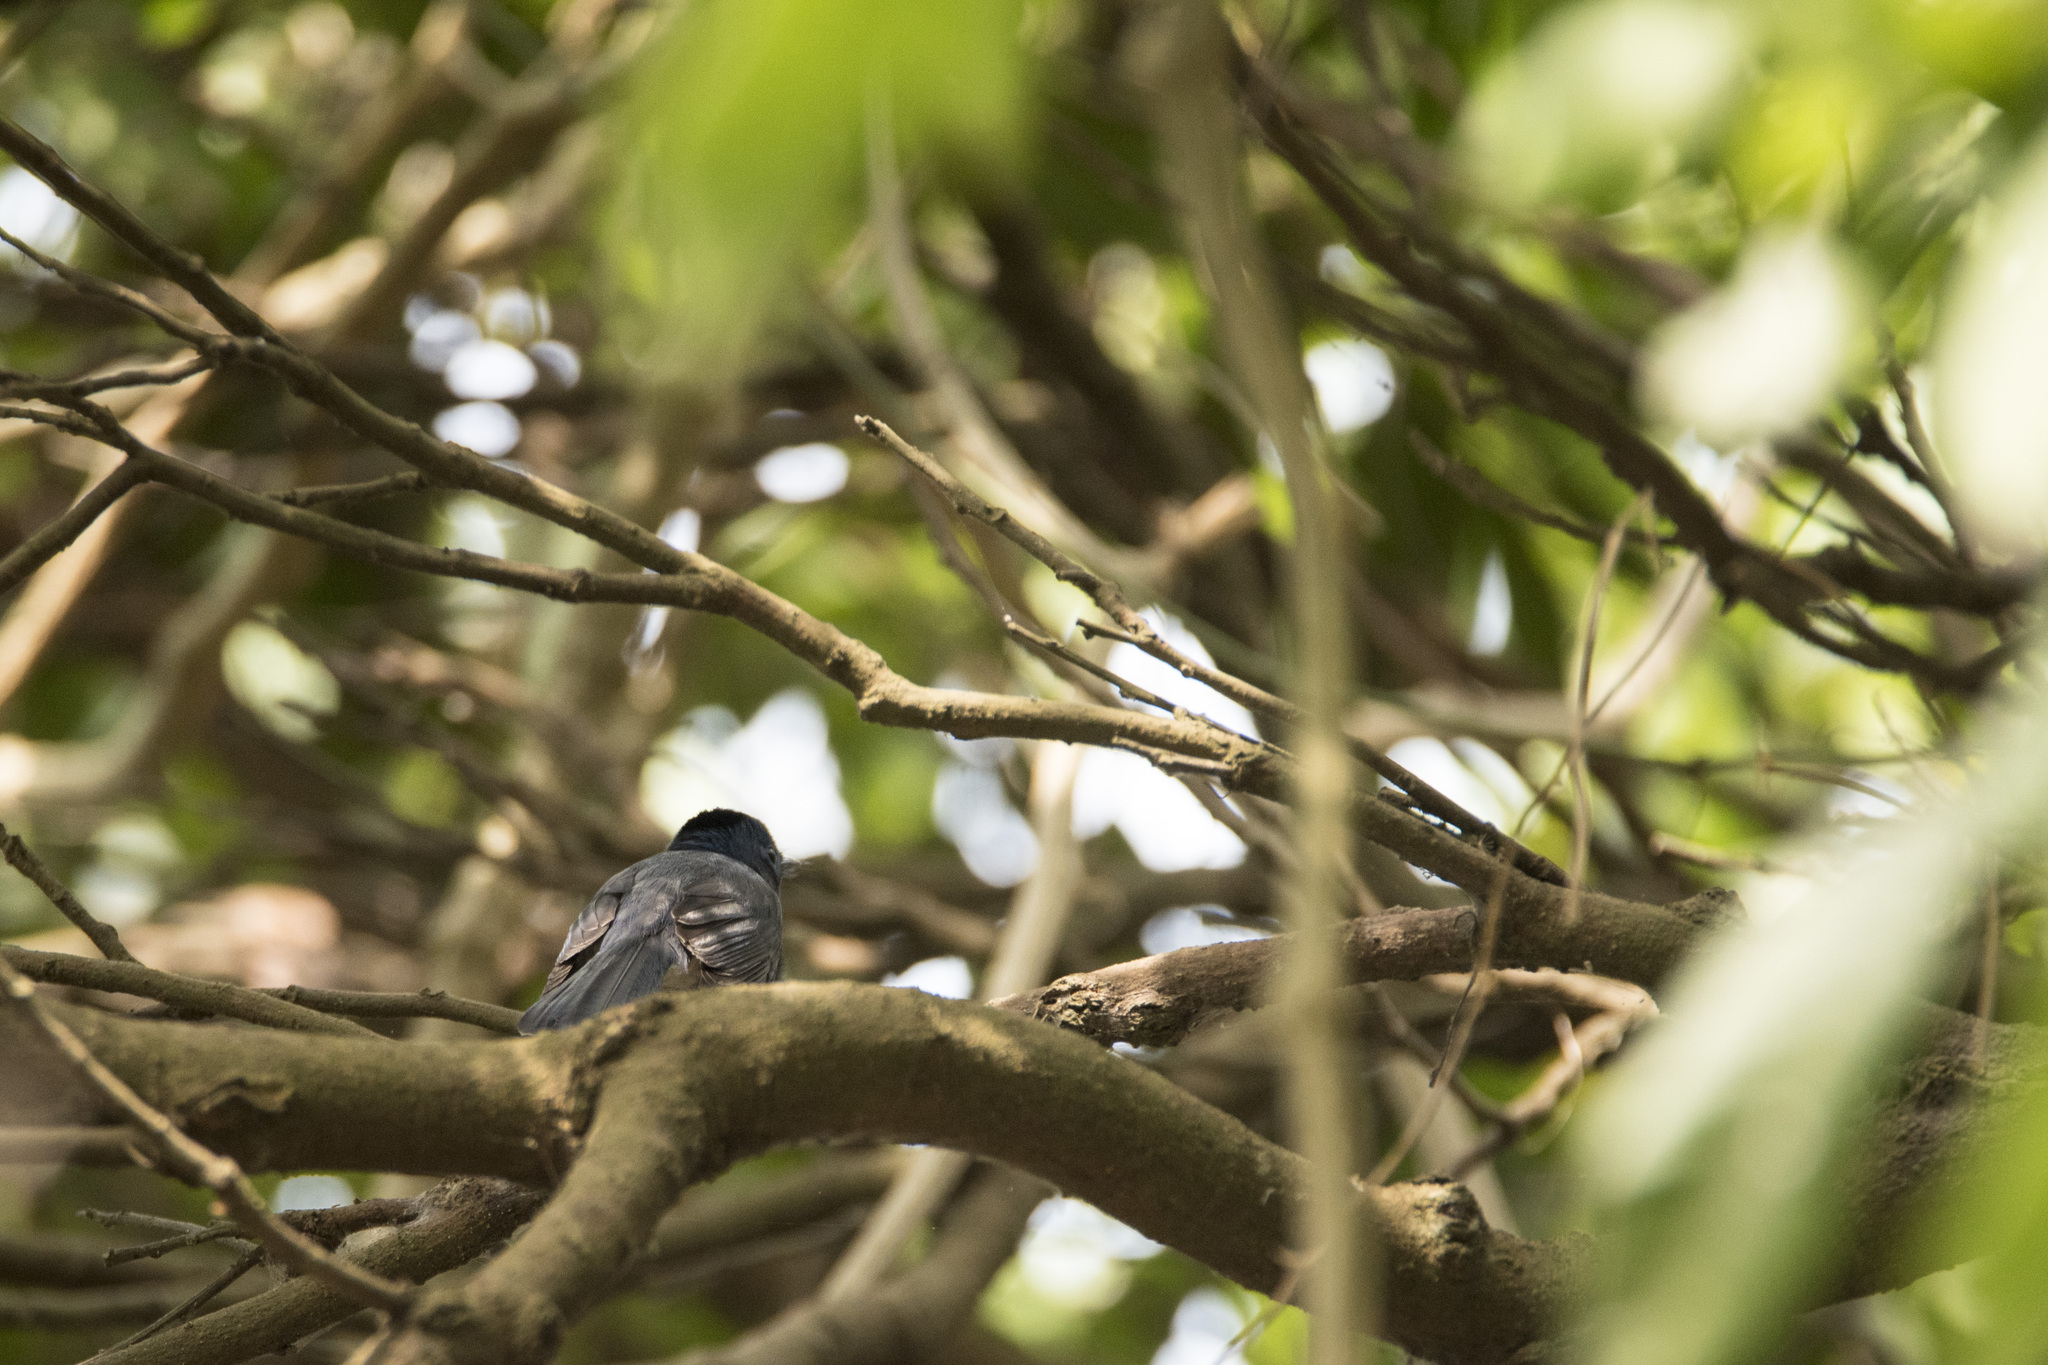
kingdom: Animalia
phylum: Chordata
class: Aves
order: Passeriformes
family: Monarchidae
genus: Hypothymis
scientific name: Hypothymis azurea
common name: Black-naped monarch
